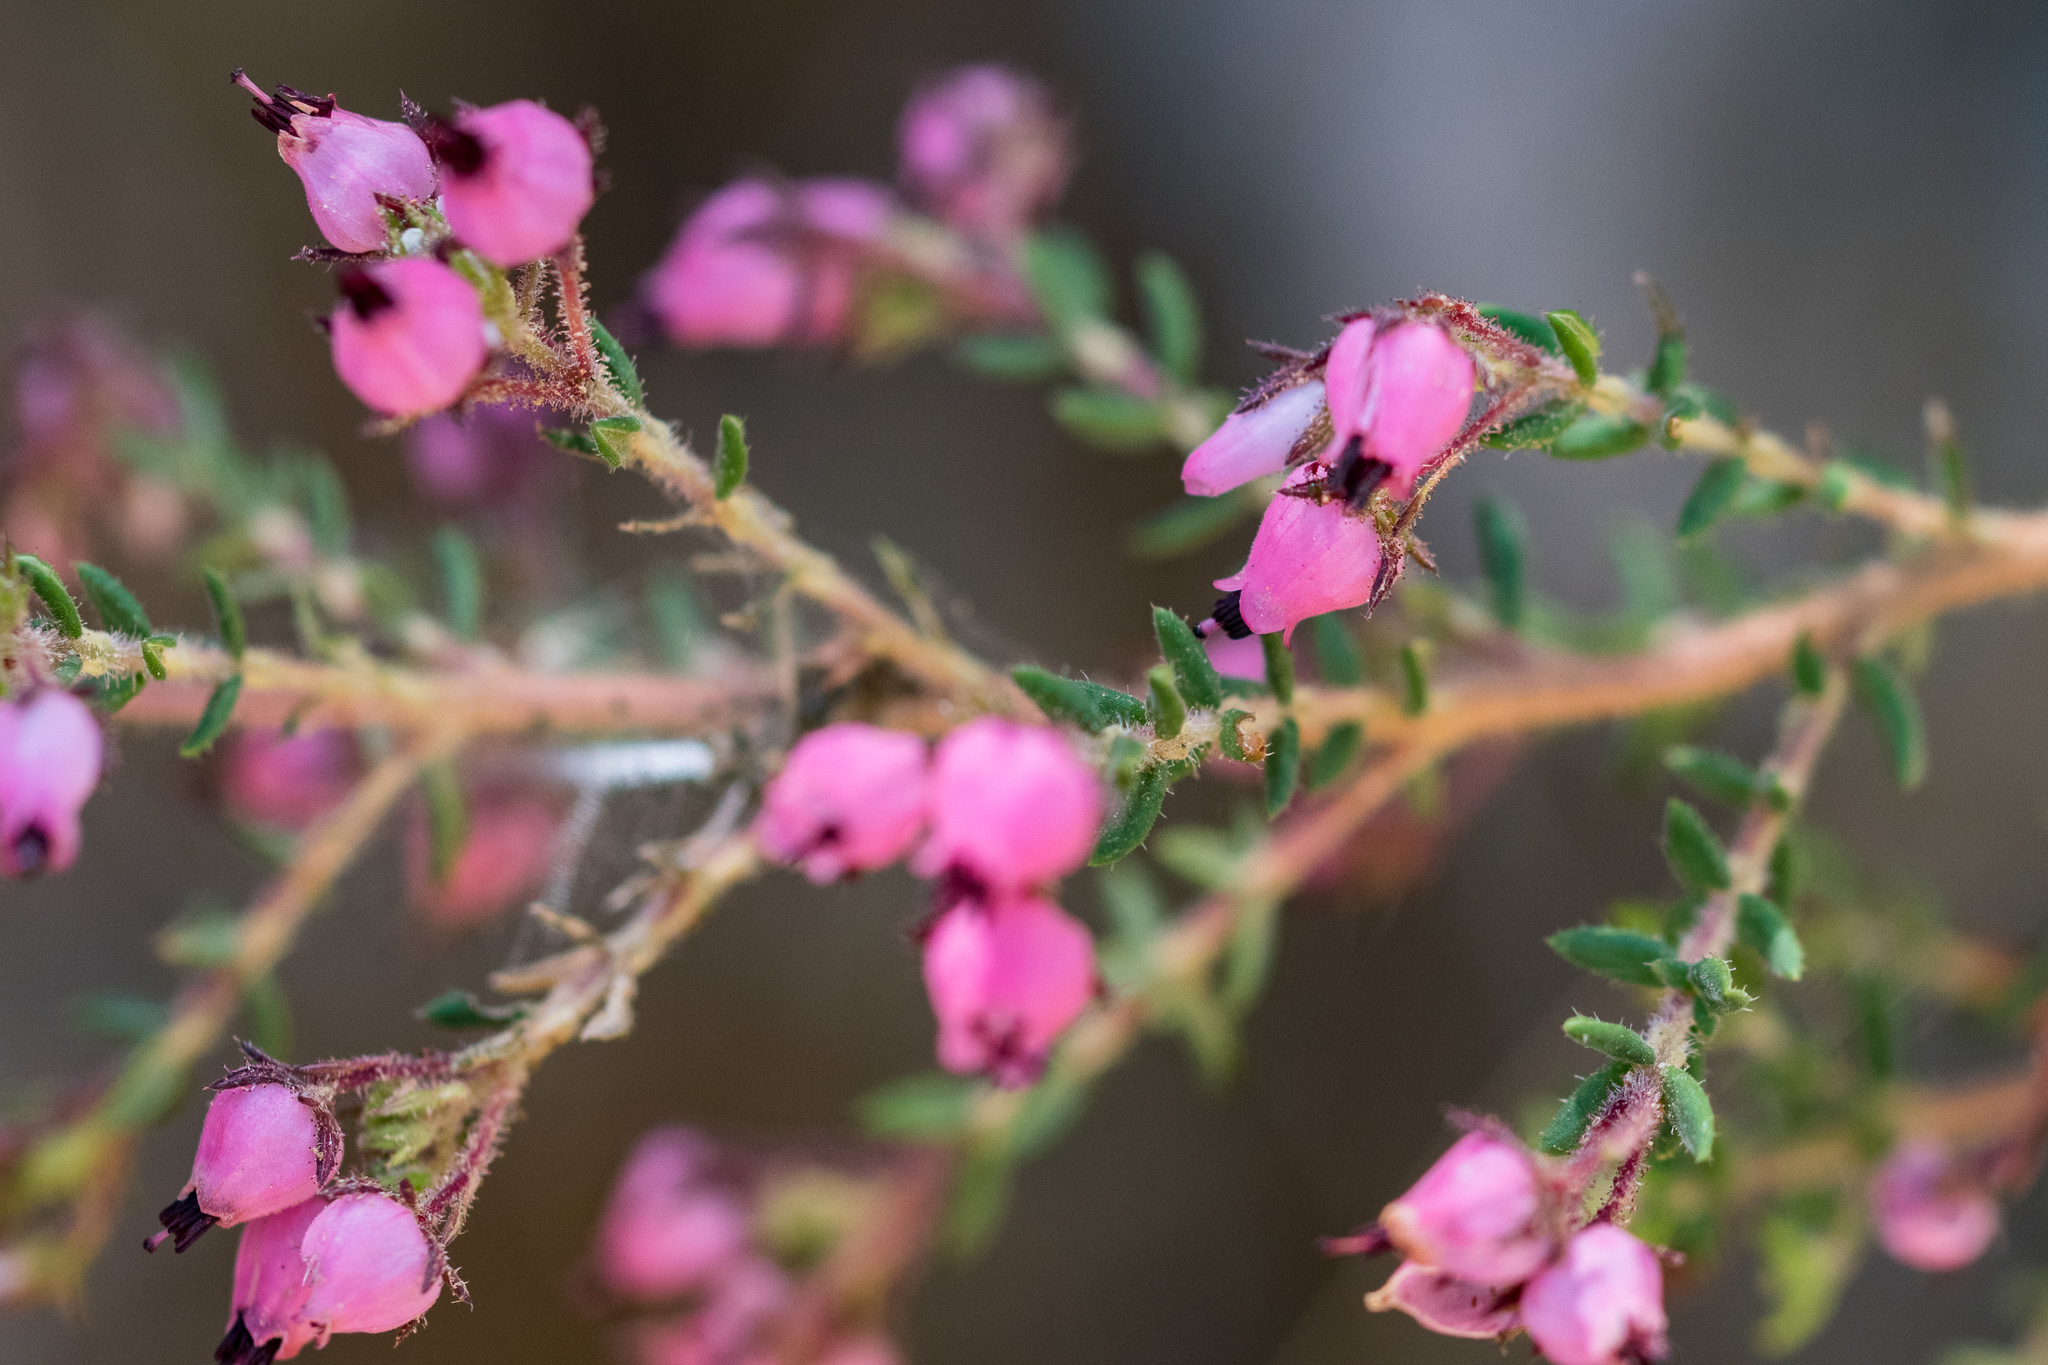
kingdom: Plantae
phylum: Tracheophyta
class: Magnoliopsida
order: Ericales
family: Ericaceae
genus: Erica
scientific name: Erica hirta
